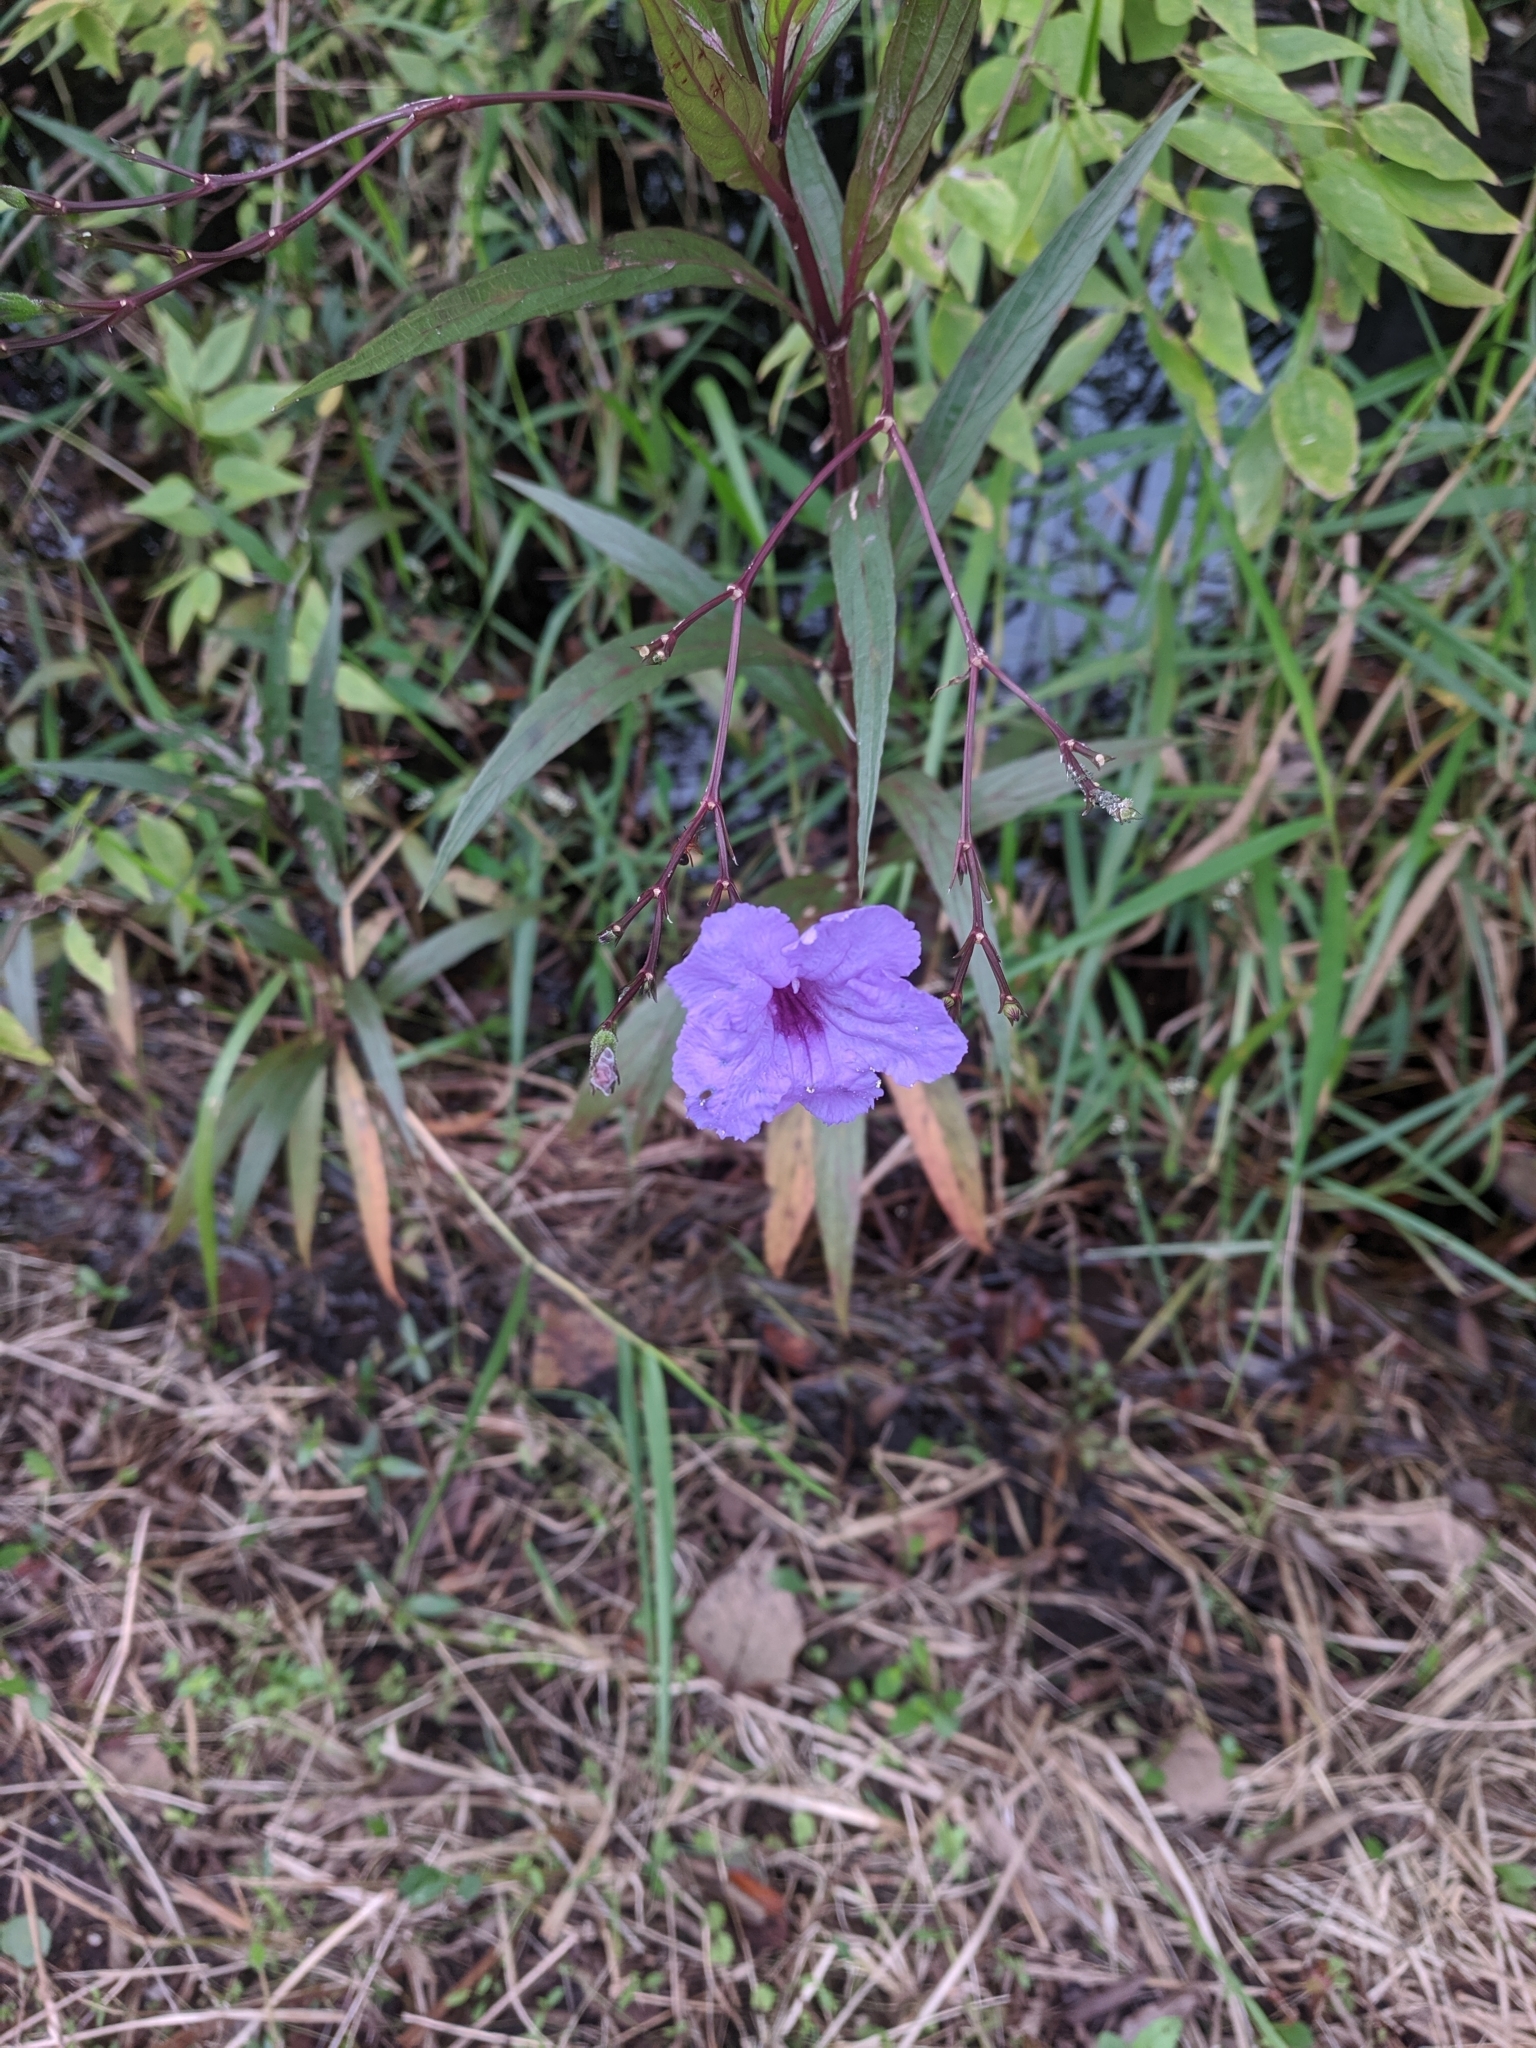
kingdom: Plantae
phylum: Tracheophyta
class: Magnoliopsida
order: Lamiales
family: Acanthaceae
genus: Ruellia
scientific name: Ruellia simplex
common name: Softseed wild petunia
